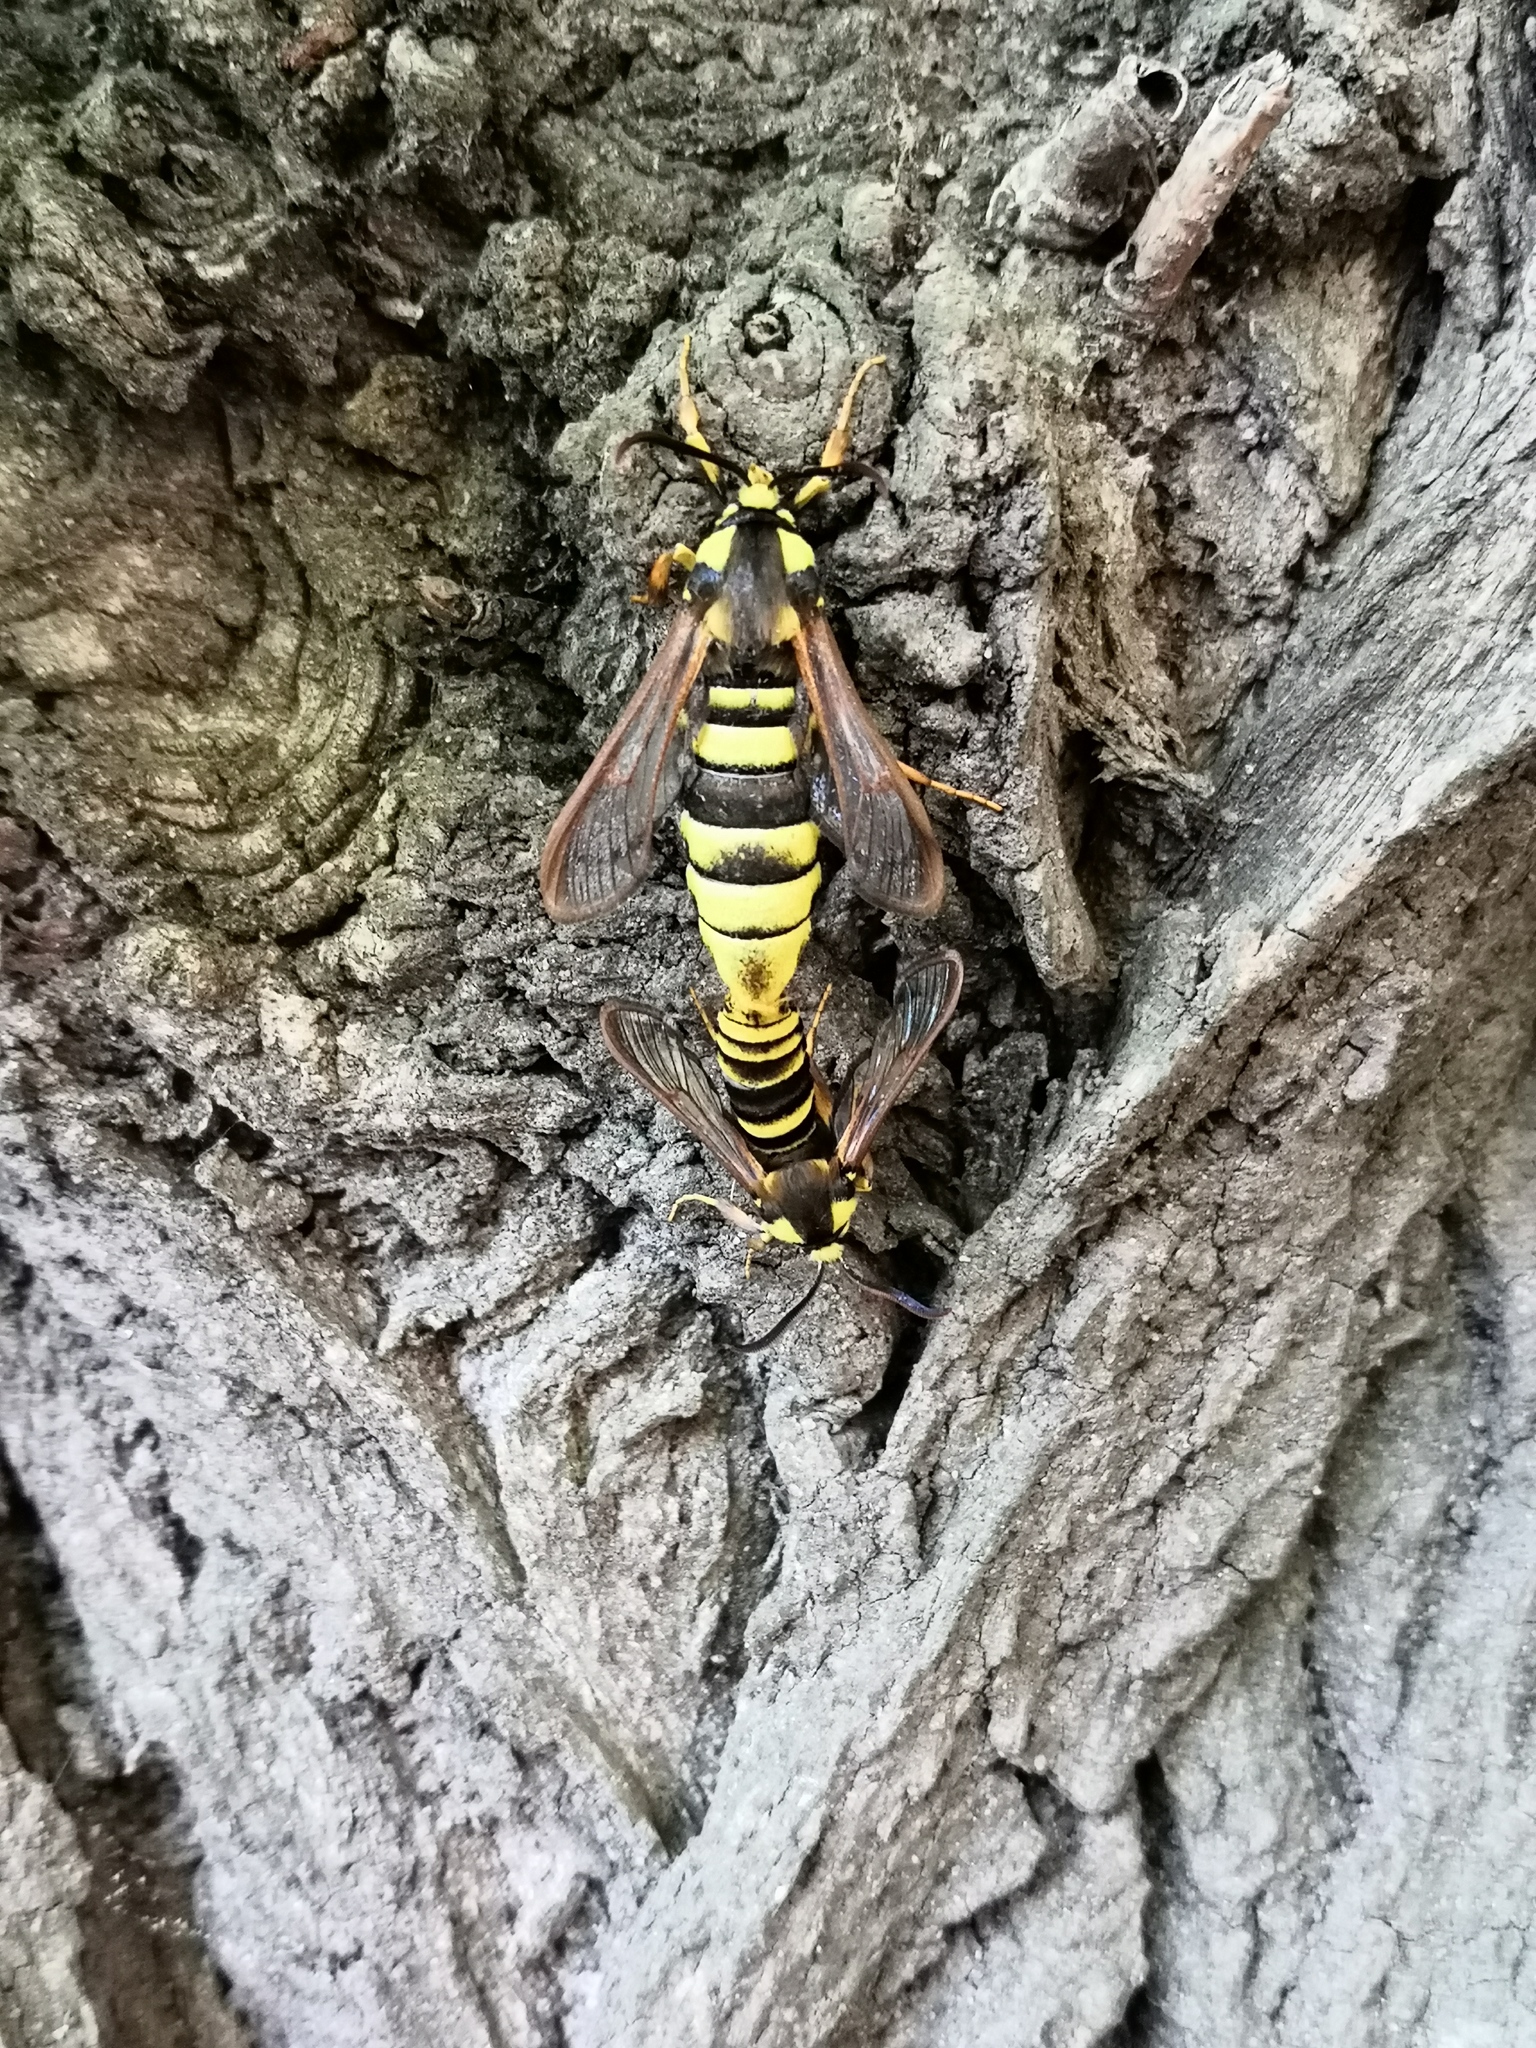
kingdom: Animalia
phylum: Arthropoda
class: Insecta
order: Lepidoptera
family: Sesiidae
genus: Sesia
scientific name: Sesia apiformis
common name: Hornet moth
